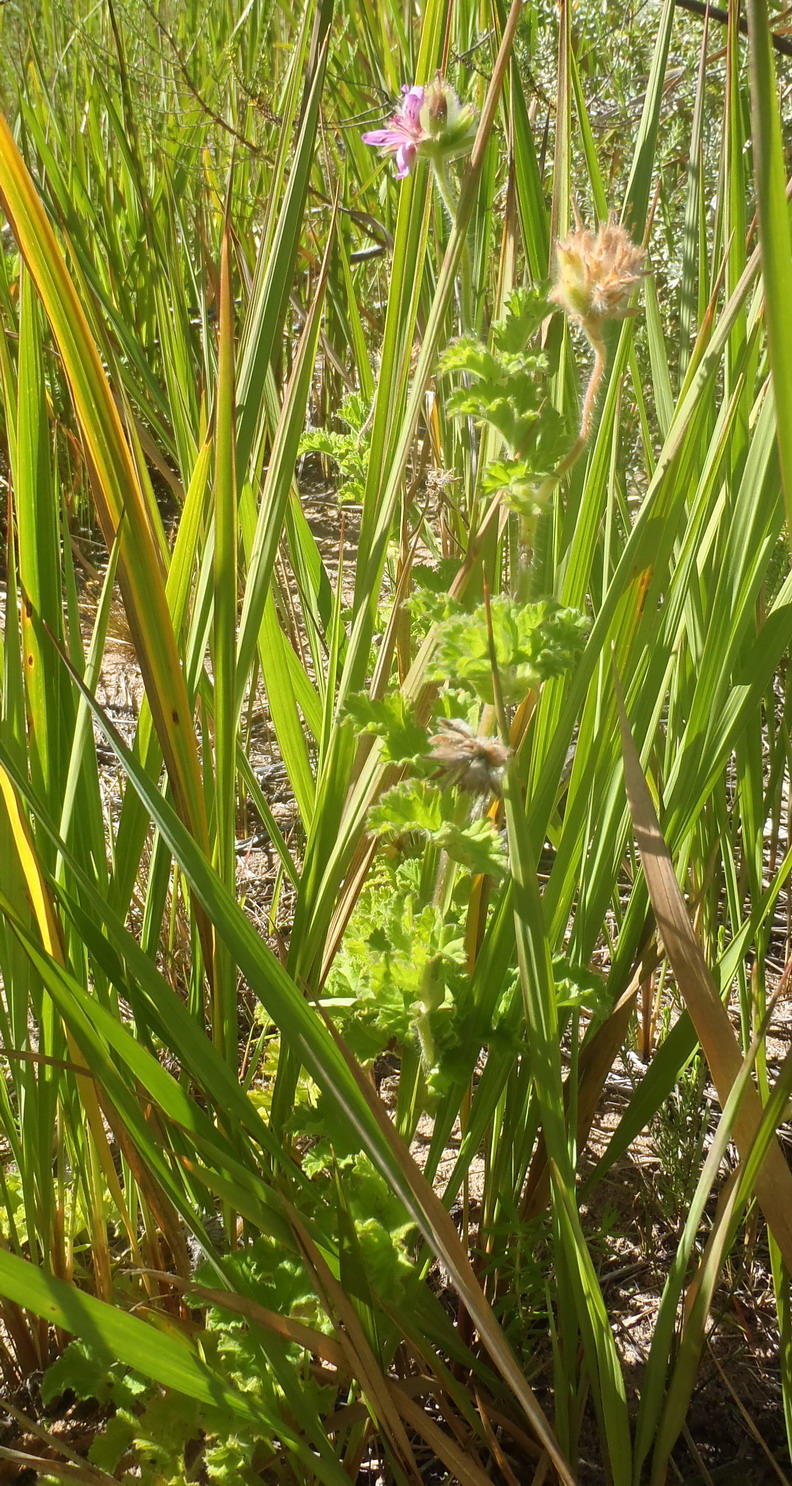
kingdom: Plantae
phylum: Tracheophyta
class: Magnoliopsida
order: Geraniales
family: Geraniaceae
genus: Pelargonium
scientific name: Pelargonium capitatum
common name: Rose scented geranium
